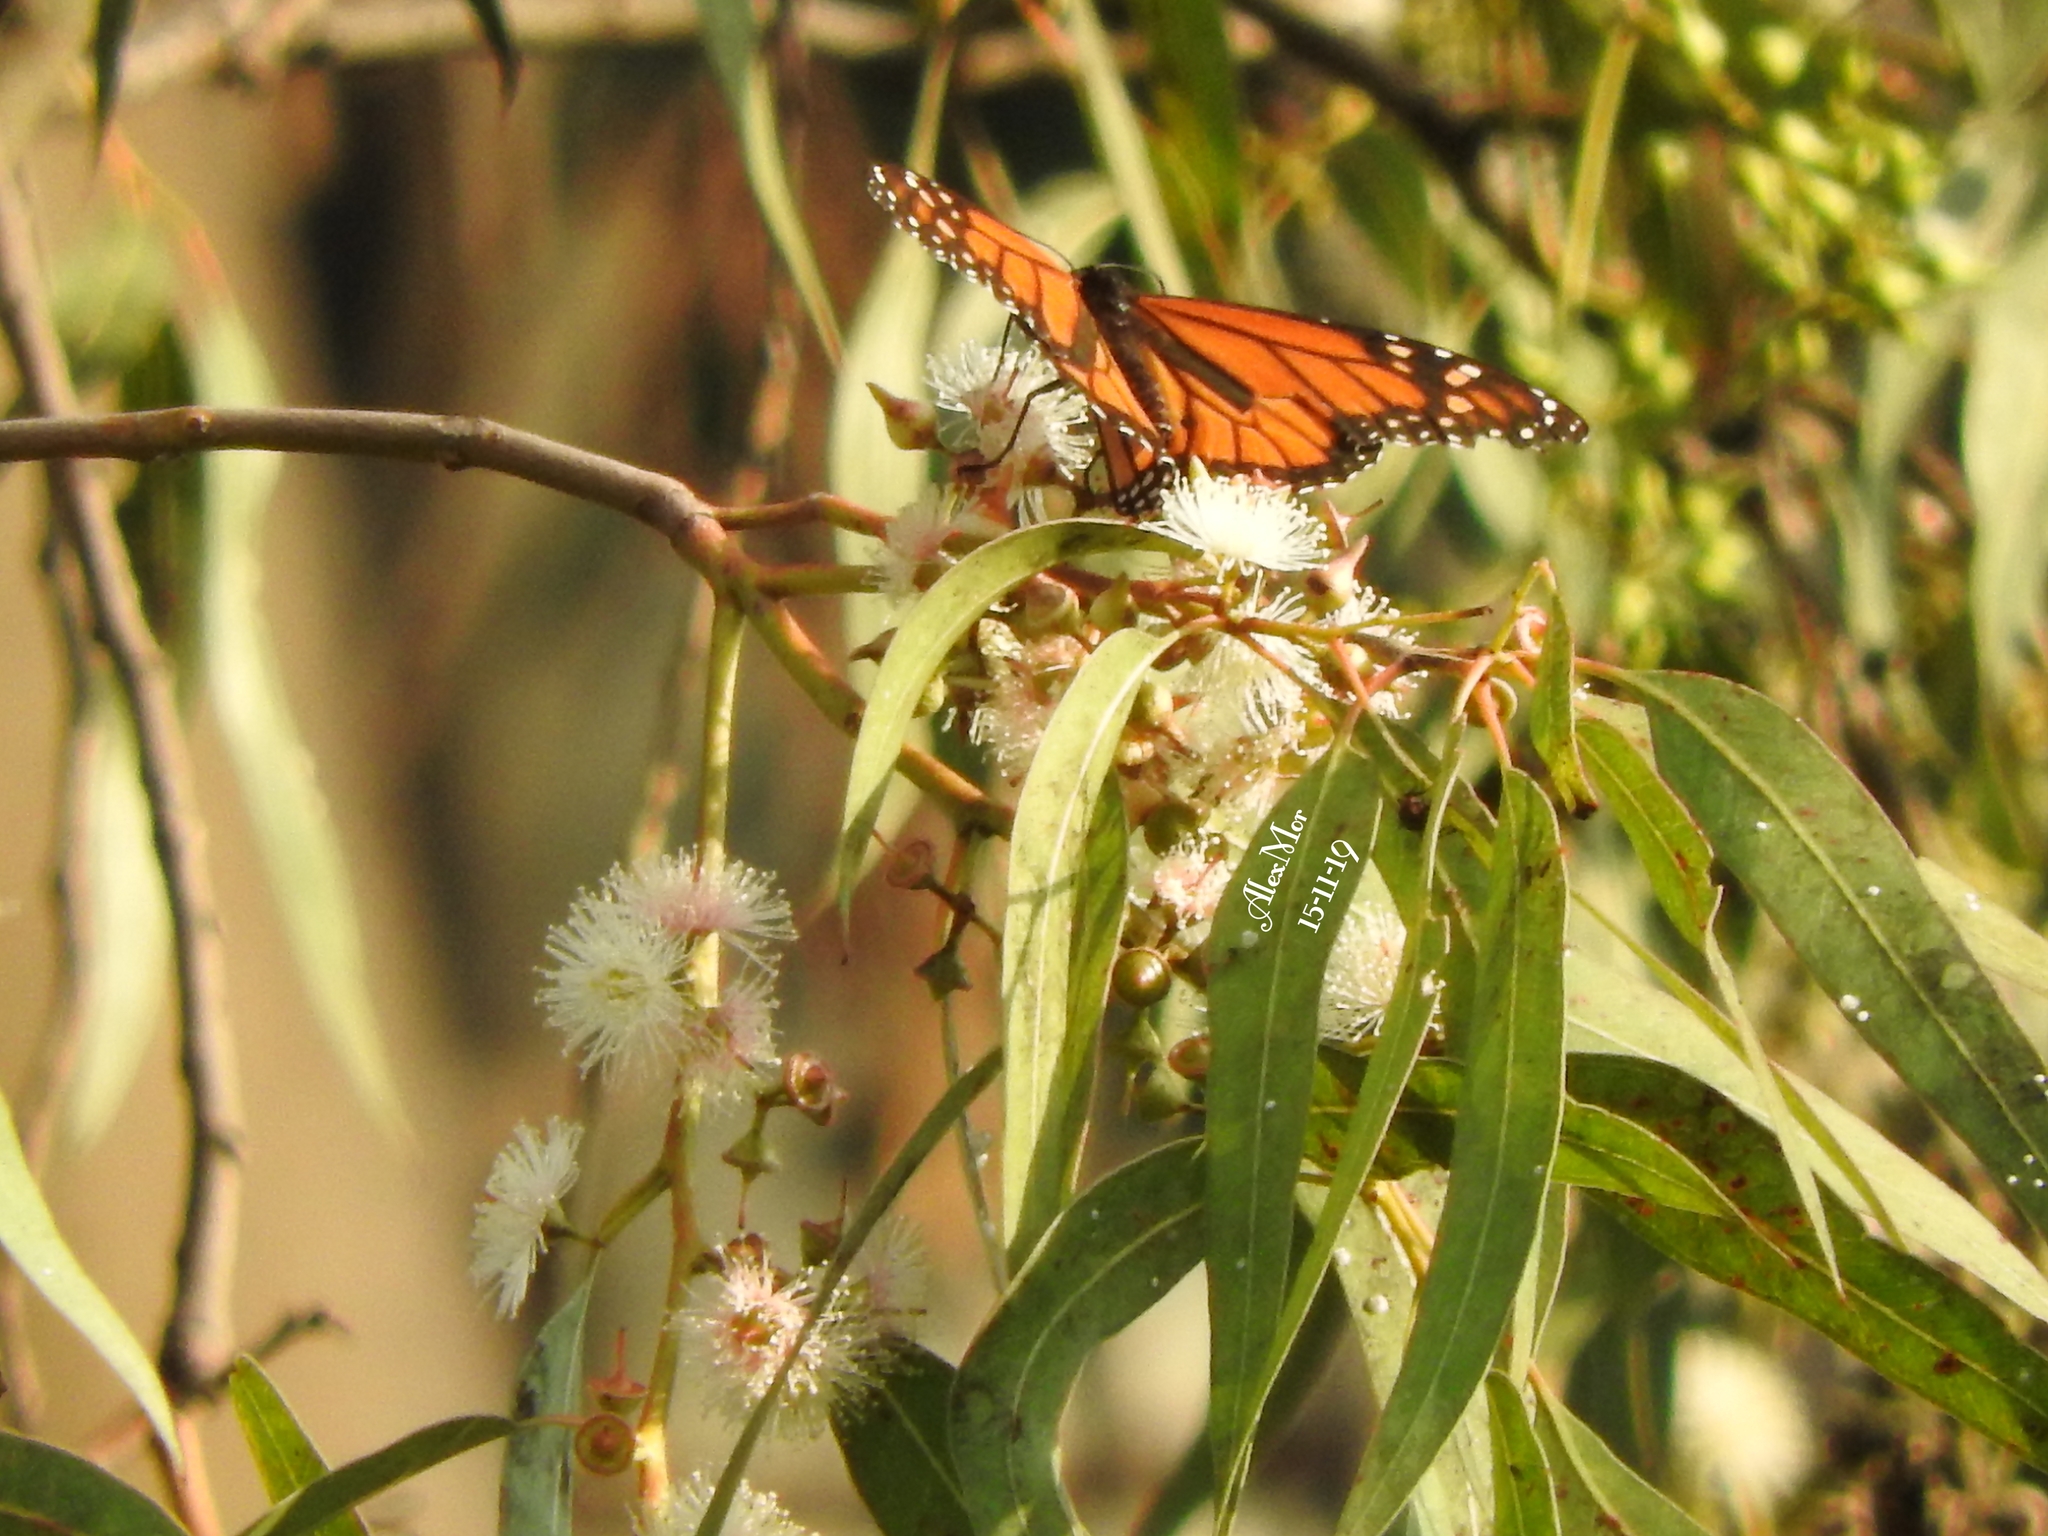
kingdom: Animalia
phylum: Arthropoda
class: Insecta
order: Lepidoptera
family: Nymphalidae
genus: Danaus
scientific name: Danaus plexippus
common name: Monarch
